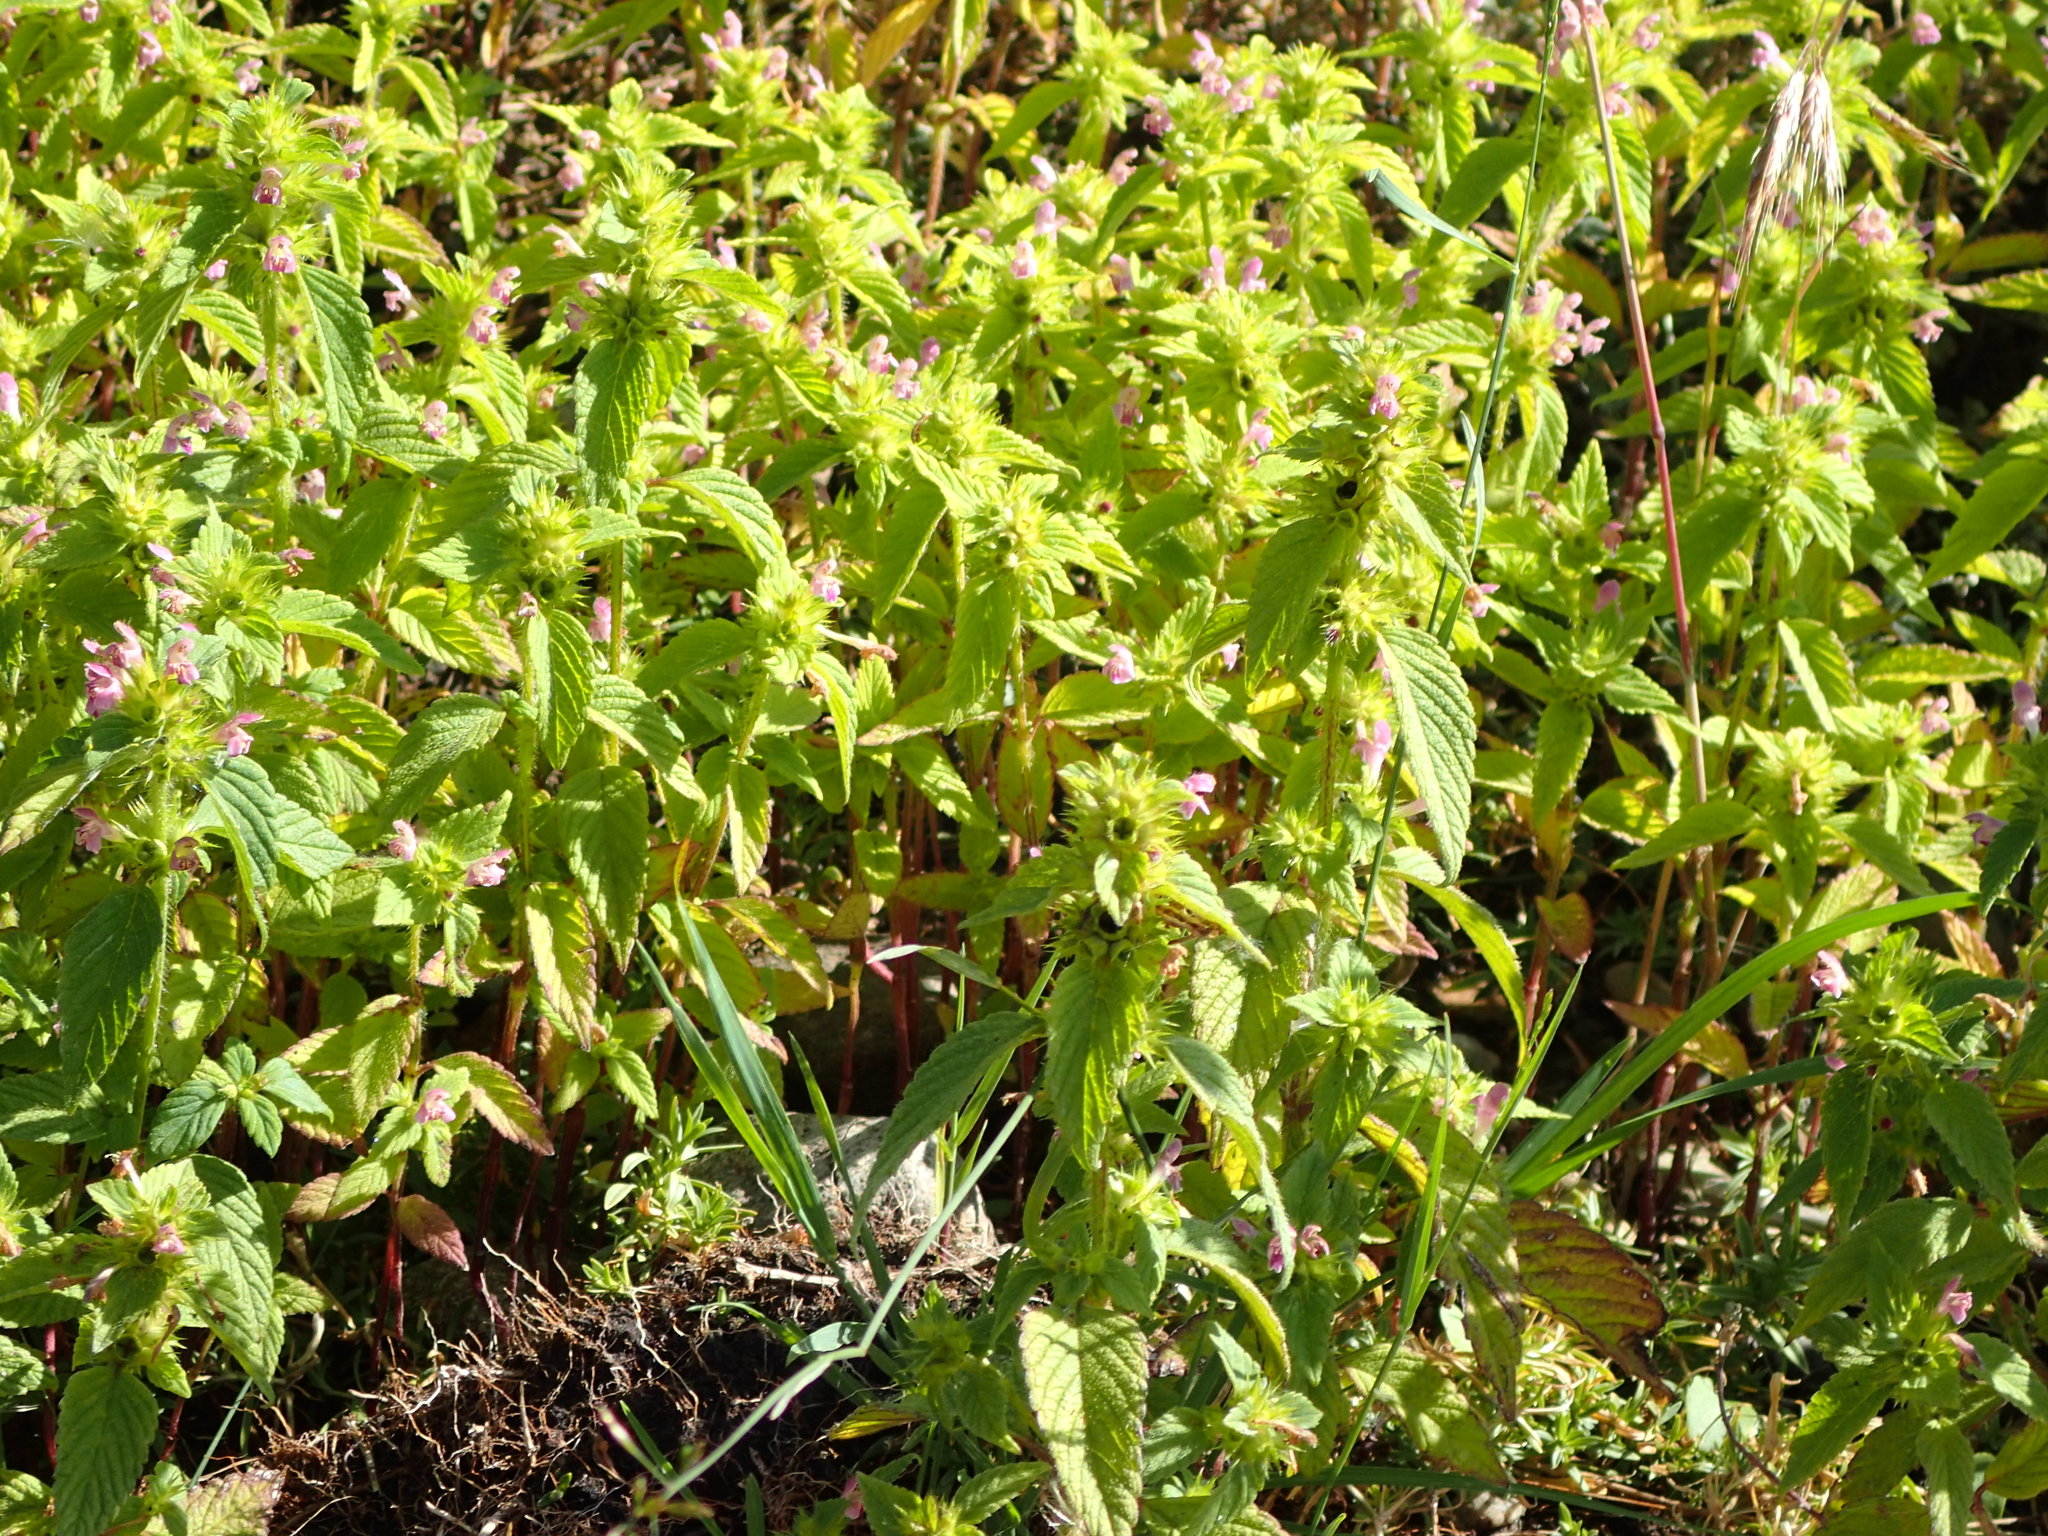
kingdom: Plantae
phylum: Tracheophyta
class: Magnoliopsida
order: Lamiales
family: Lamiaceae
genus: Galeopsis
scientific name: Galeopsis bifida
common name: Bifid hemp-nettle
